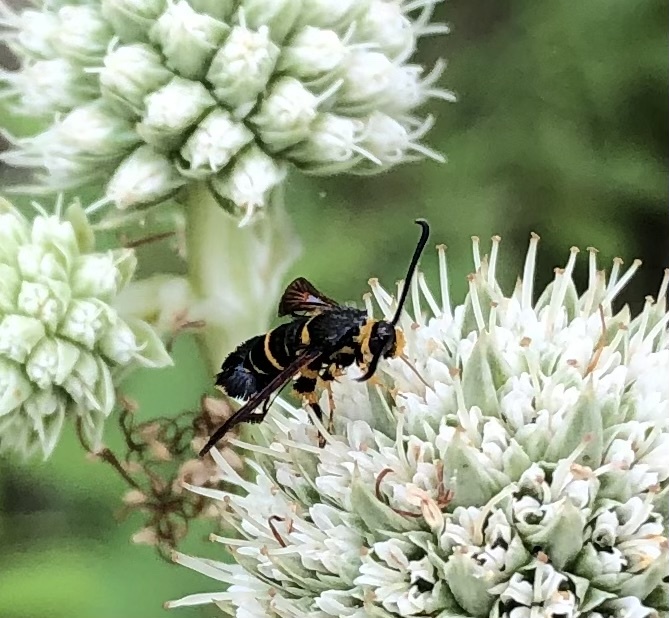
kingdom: Animalia
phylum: Arthropoda
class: Insecta
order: Lepidoptera
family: Sesiidae
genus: Synanthedon
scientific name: Synanthedon decipiens
